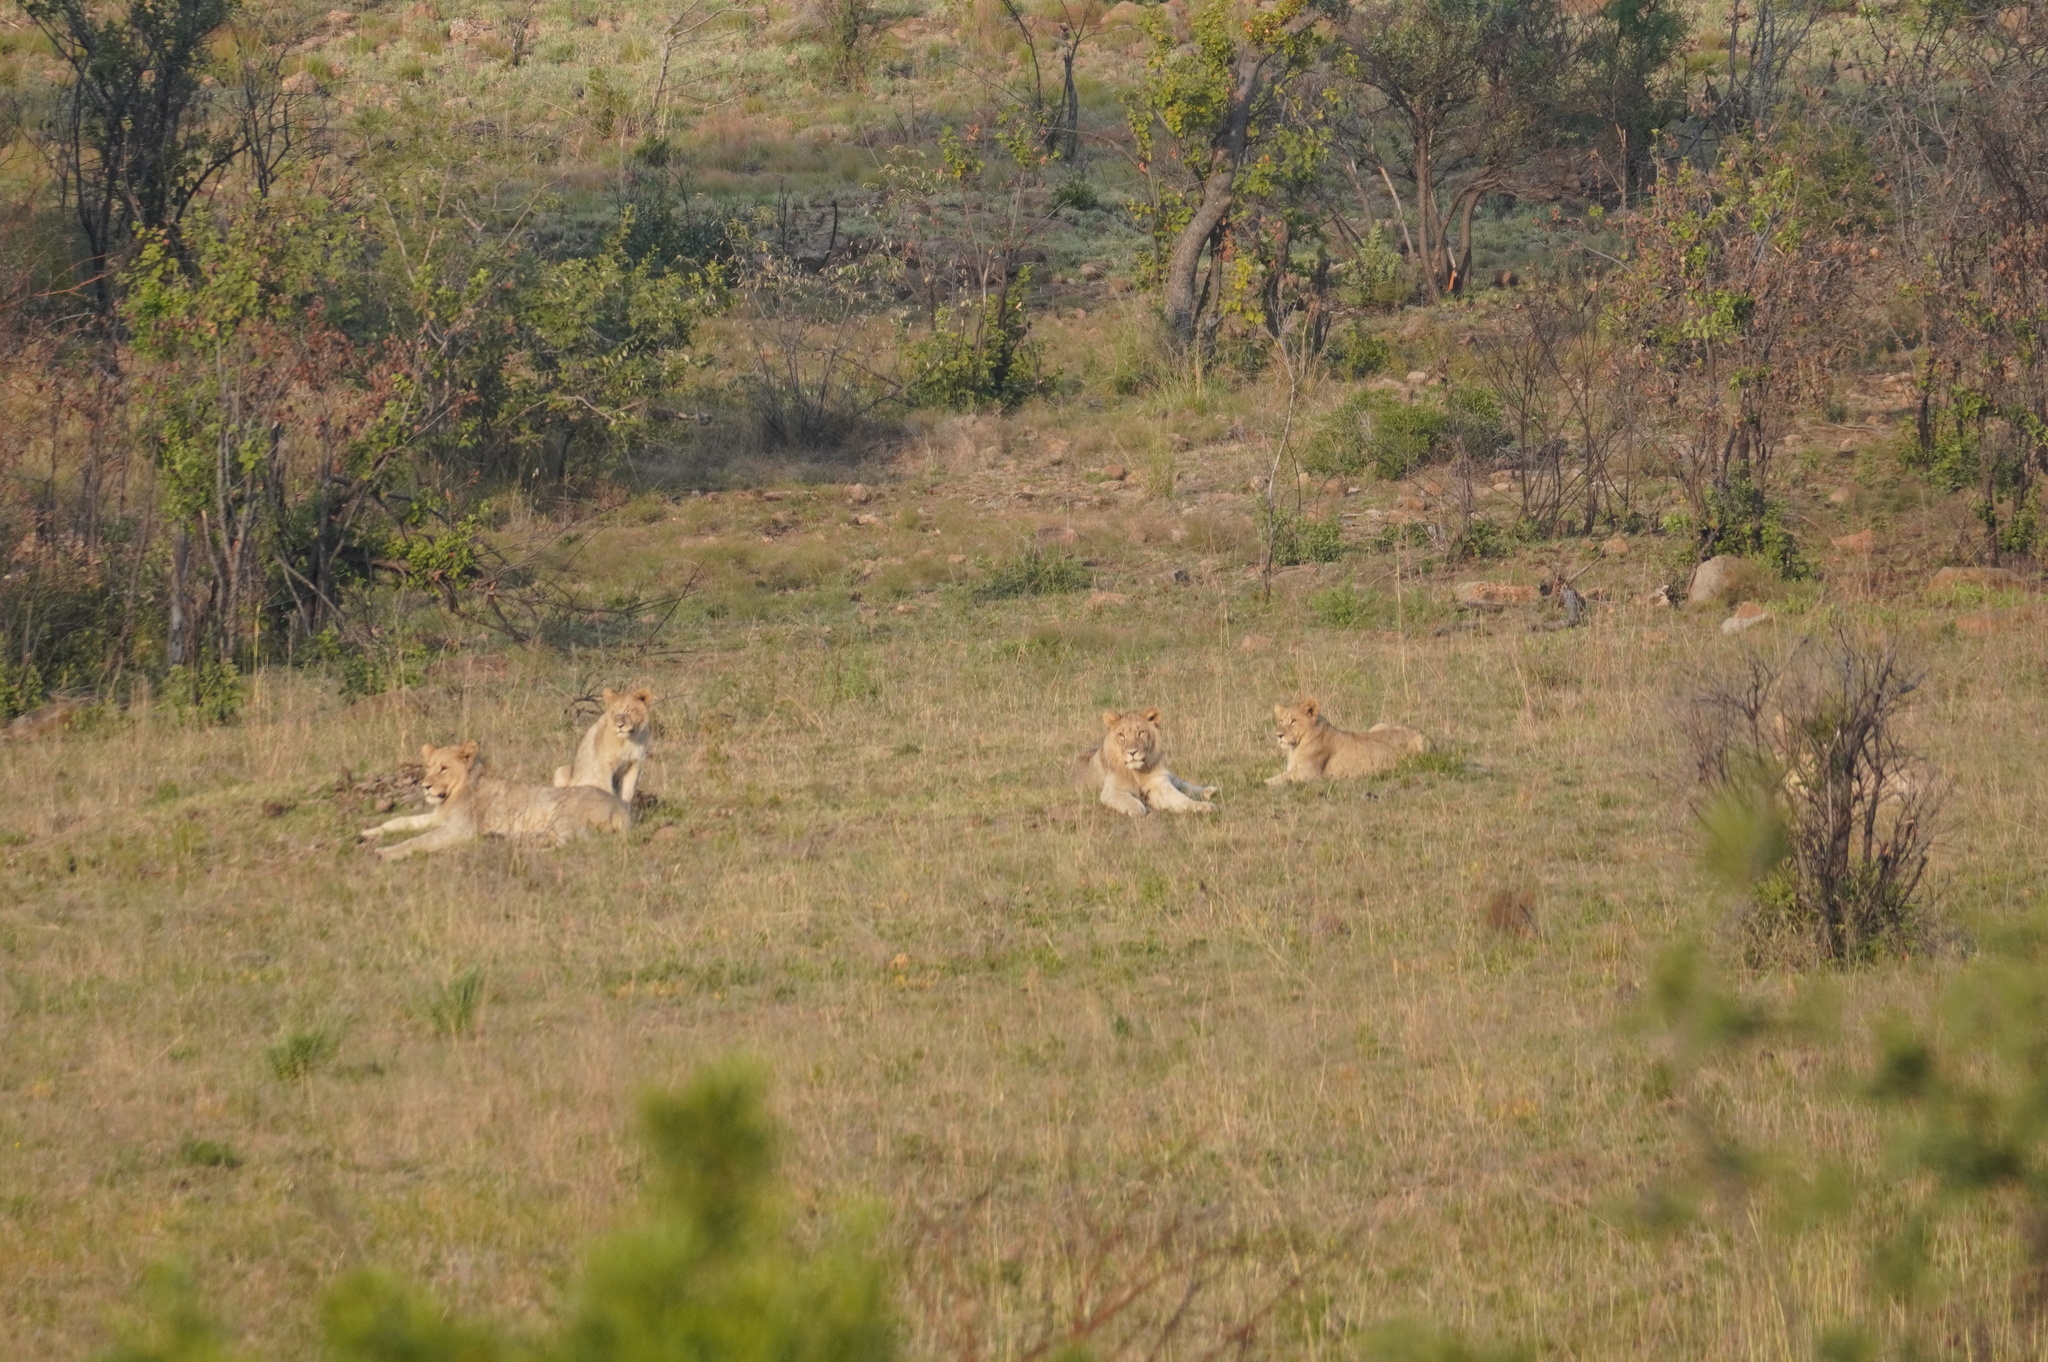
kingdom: Animalia
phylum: Chordata
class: Mammalia
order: Carnivora
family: Felidae
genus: Panthera
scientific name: Panthera leo
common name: Lion
